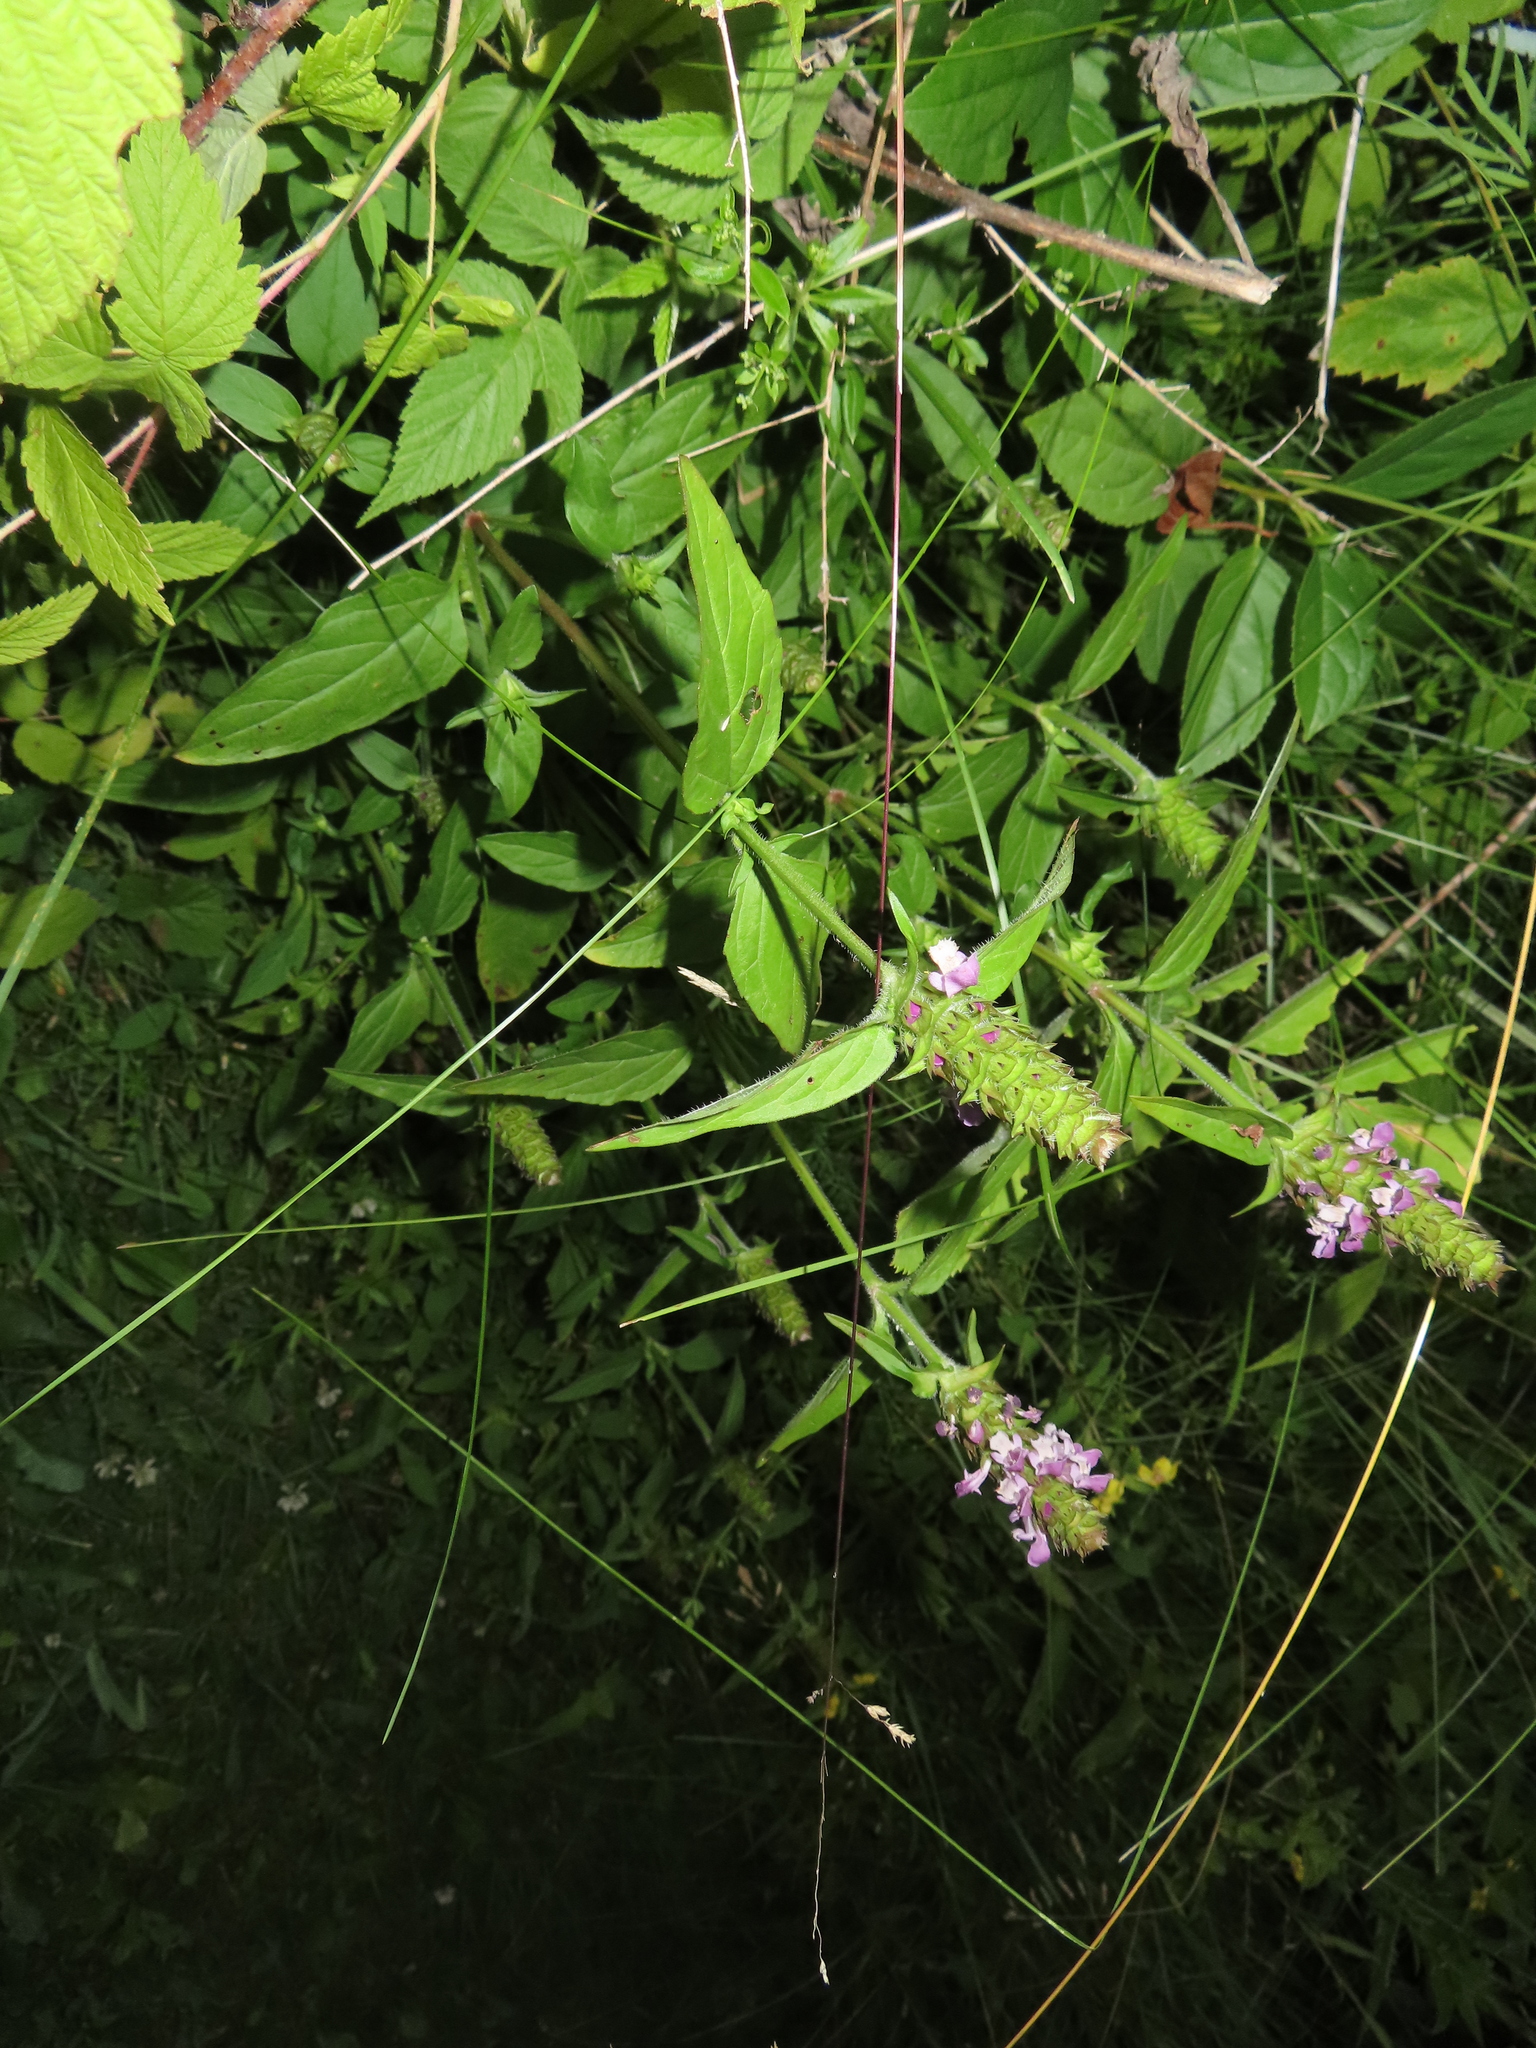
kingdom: Plantae
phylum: Tracheophyta
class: Magnoliopsida
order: Lamiales
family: Lamiaceae
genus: Prunella
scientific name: Prunella vulgaris
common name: Heal-all
